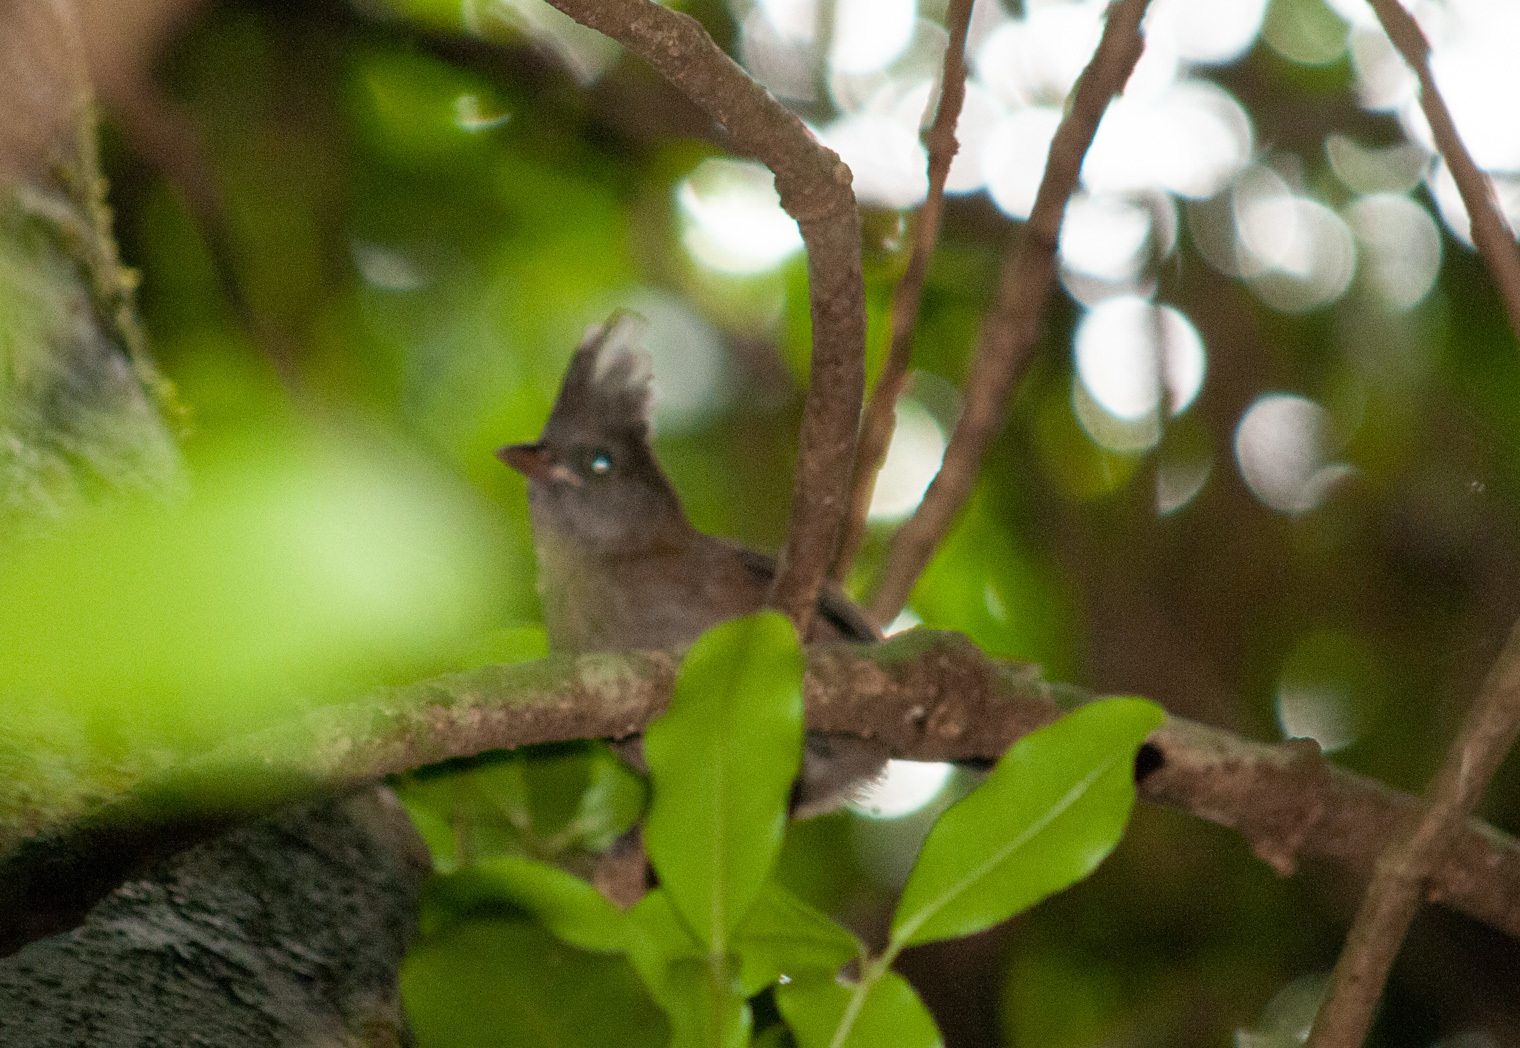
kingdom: Animalia
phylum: Chordata
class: Aves
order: Passeriformes
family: Psophodidae
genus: Psophodes
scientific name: Psophodes olivaceus
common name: Eastern whipbird
